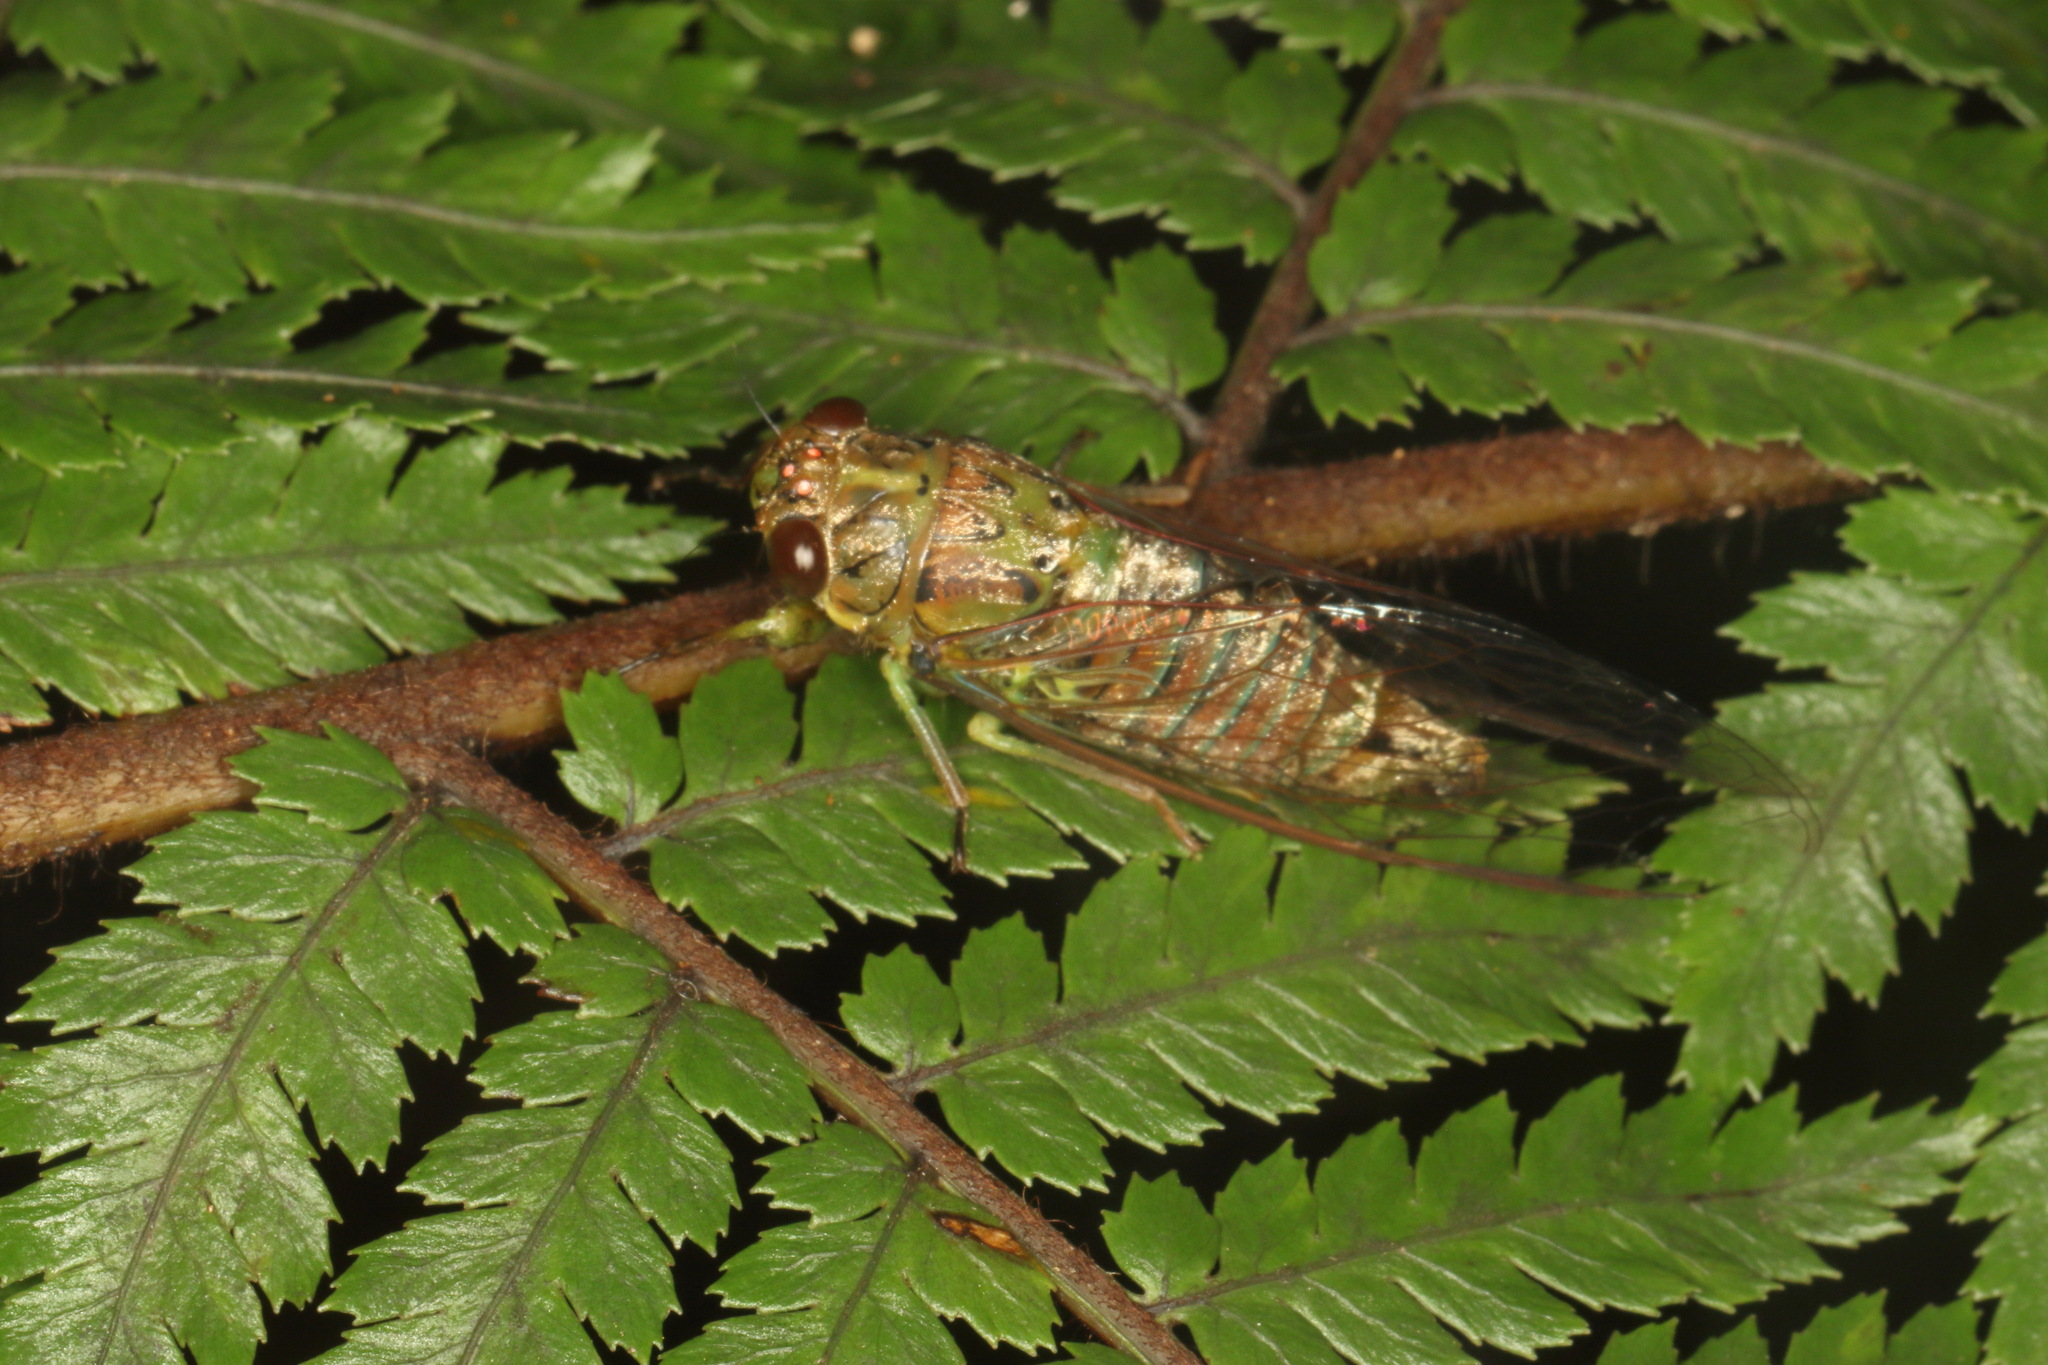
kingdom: Animalia
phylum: Arthropoda
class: Insecta
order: Hemiptera
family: Cicadidae
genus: Kikihia
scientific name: Kikihia scutellaris
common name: Lesser bronze cicada
